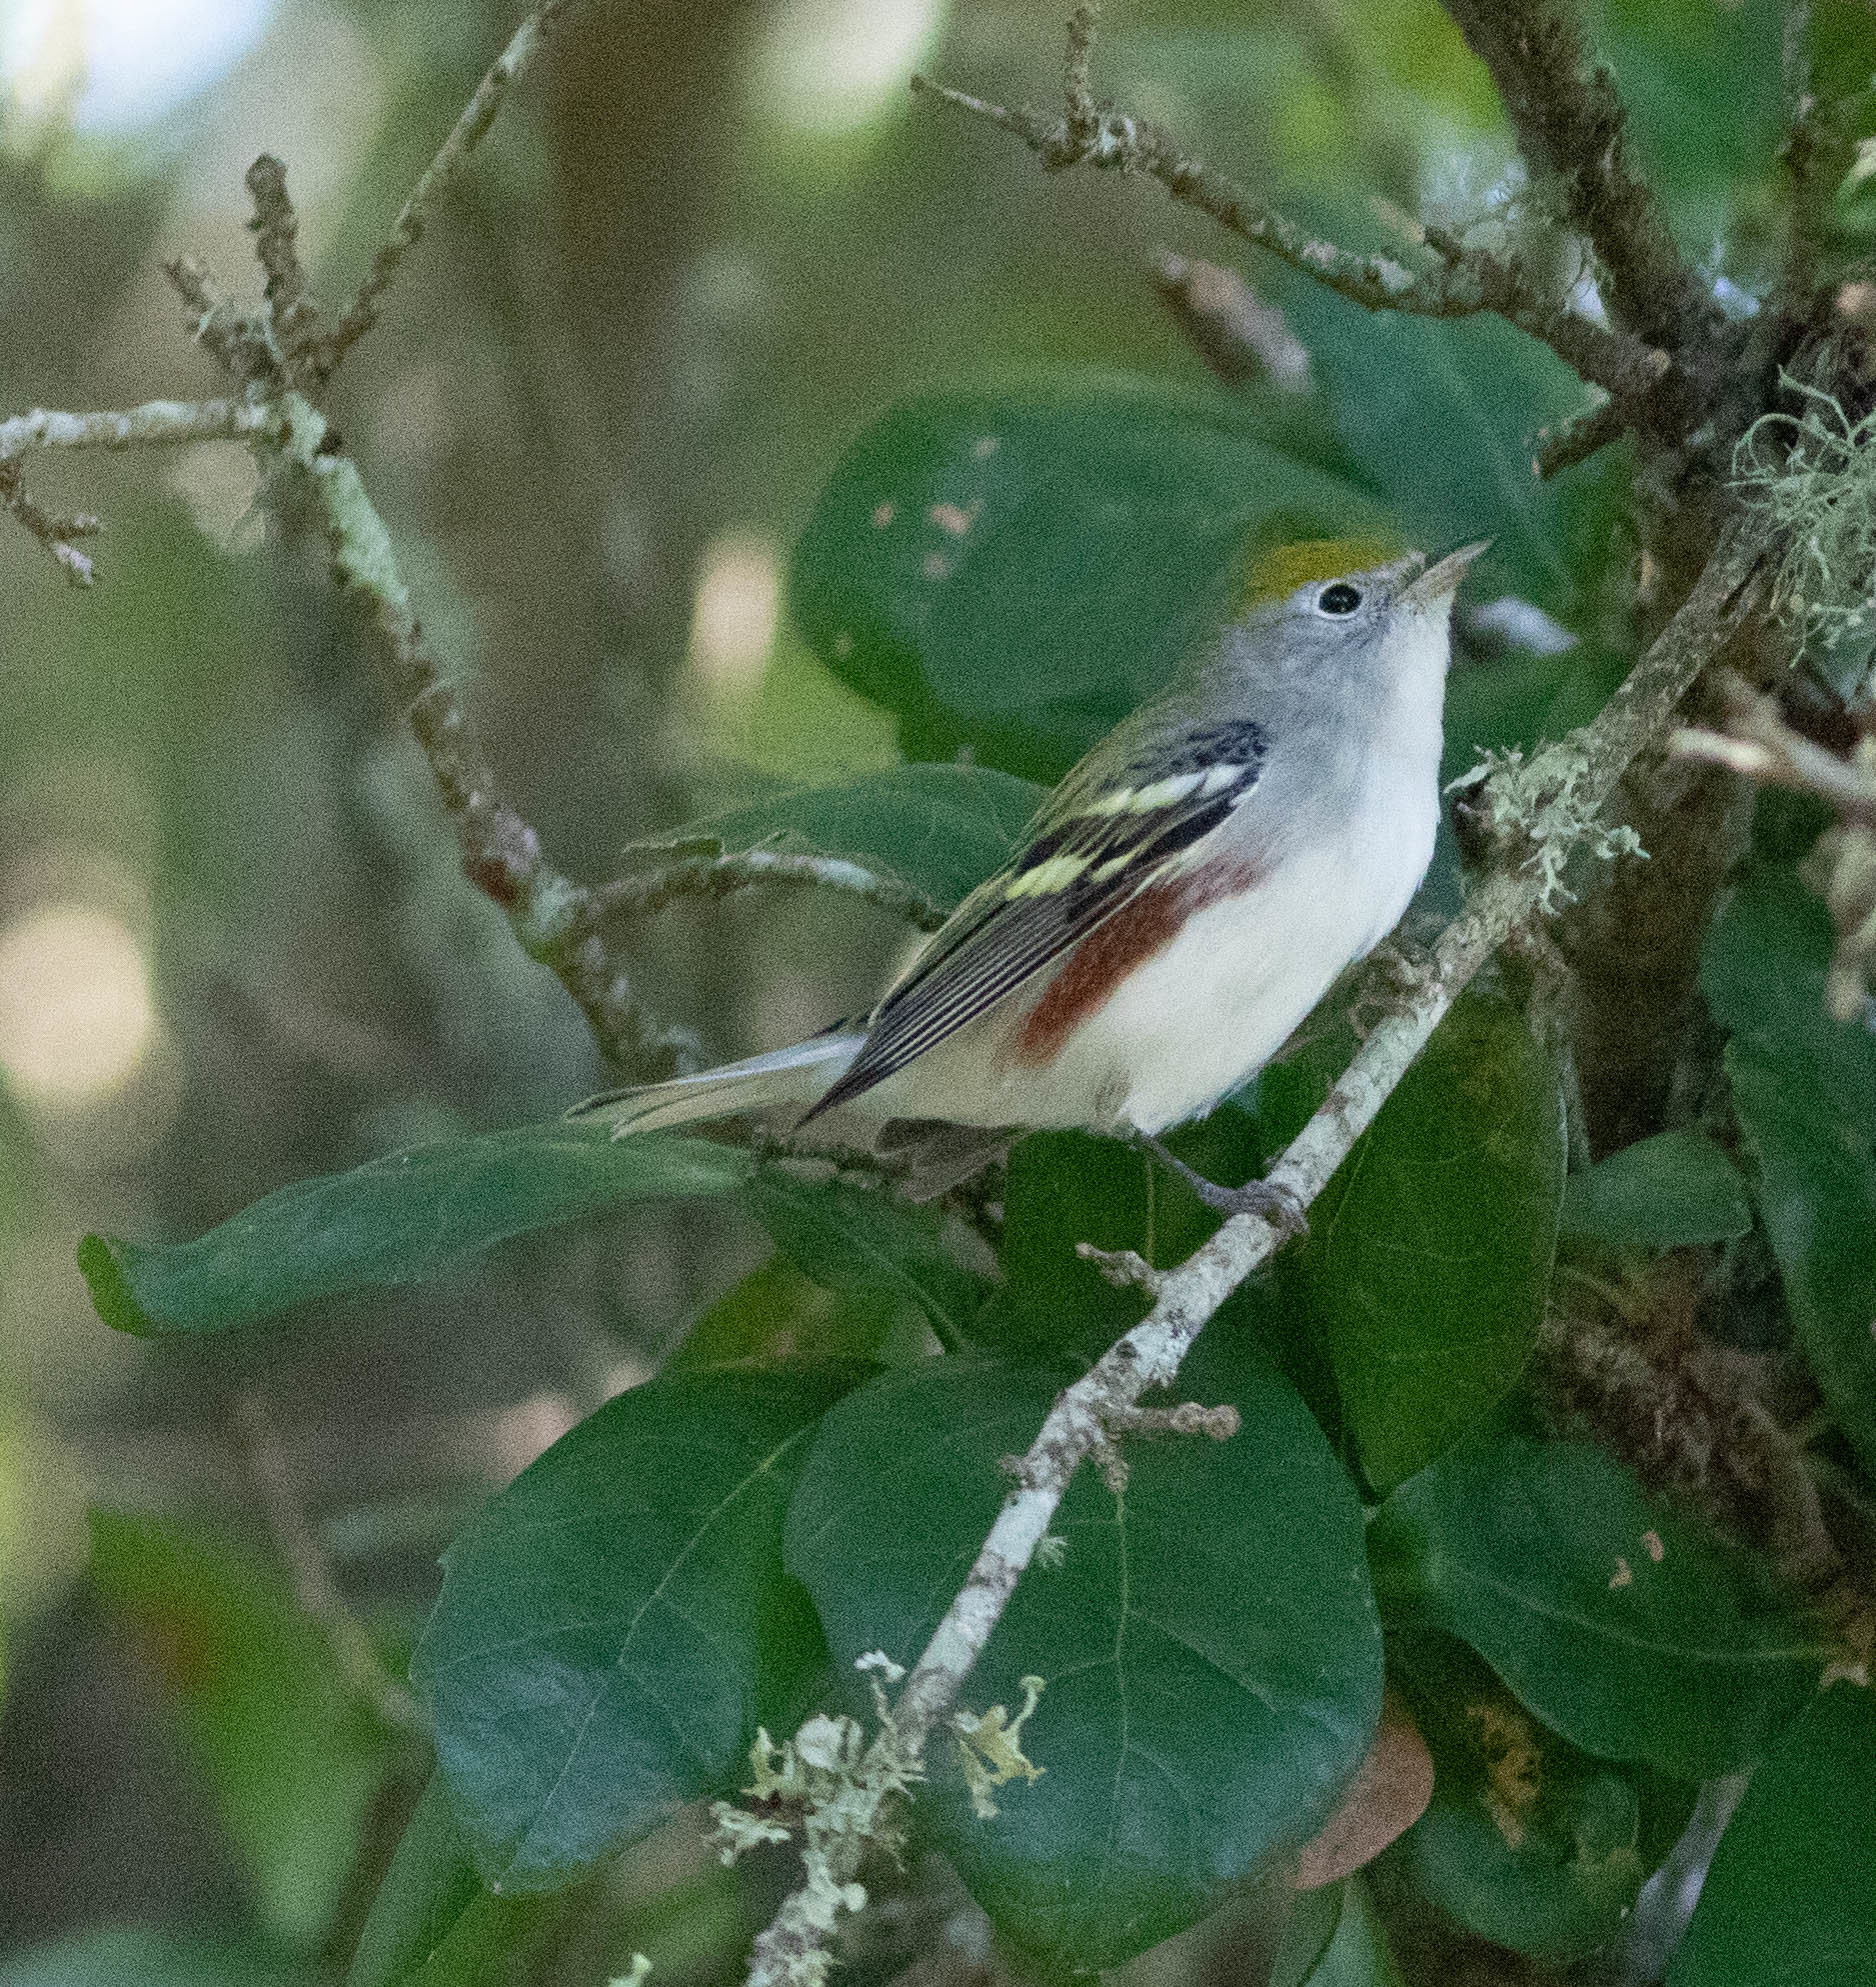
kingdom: Animalia
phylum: Chordata
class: Aves
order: Passeriformes
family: Parulidae
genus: Setophaga
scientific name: Setophaga pensylvanica
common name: Chestnut-sided warbler
